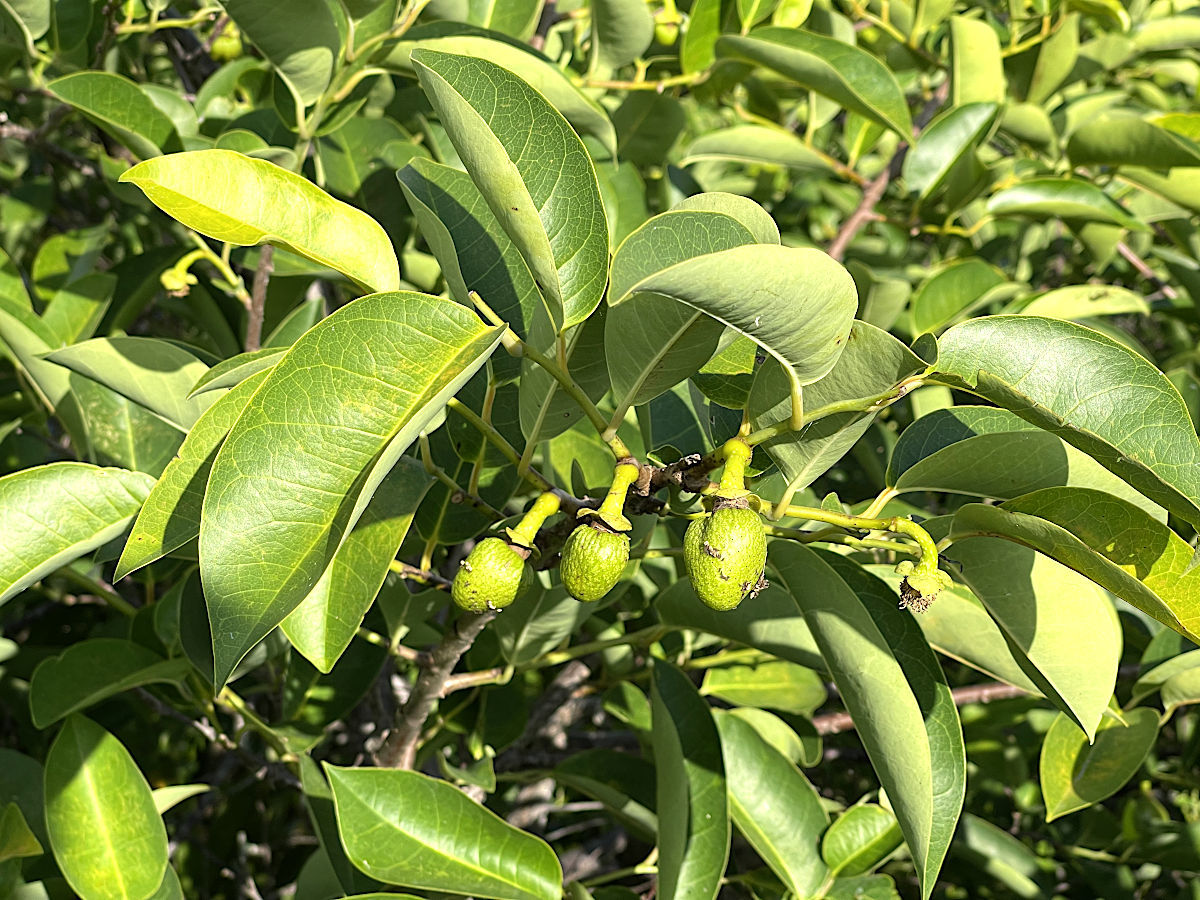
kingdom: Plantae
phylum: Tracheophyta
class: Magnoliopsida
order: Magnoliales
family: Annonaceae
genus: Annona
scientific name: Annona glabra
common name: Monkey apple
